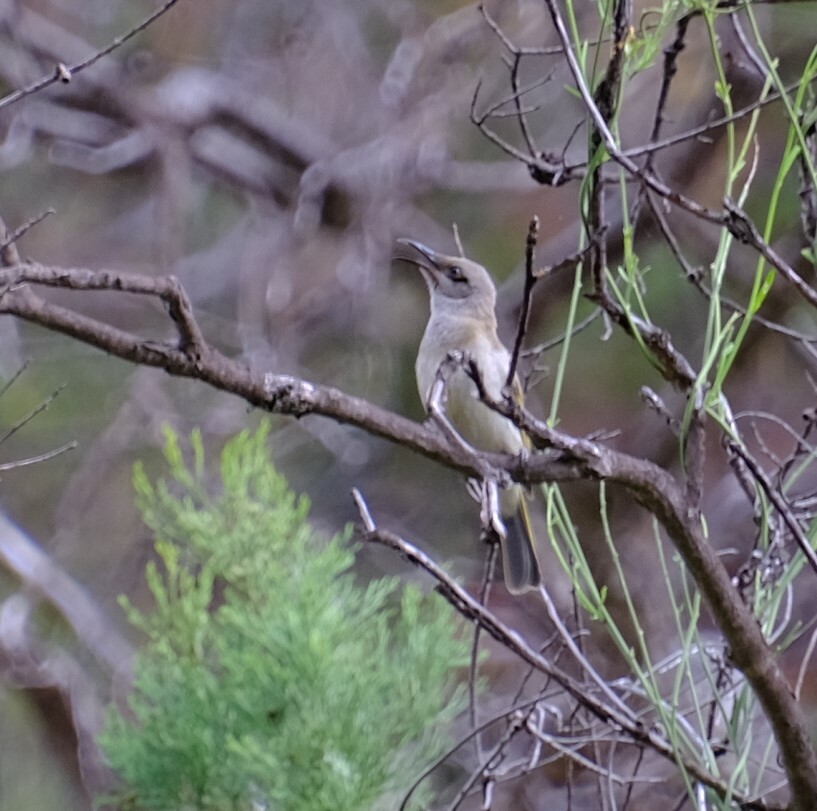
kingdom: Animalia
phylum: Chordata
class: Aves
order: Passeriformes
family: Meliphagidae
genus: Lichmera
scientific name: Lichmera indistincta
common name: Brown honeyeater
